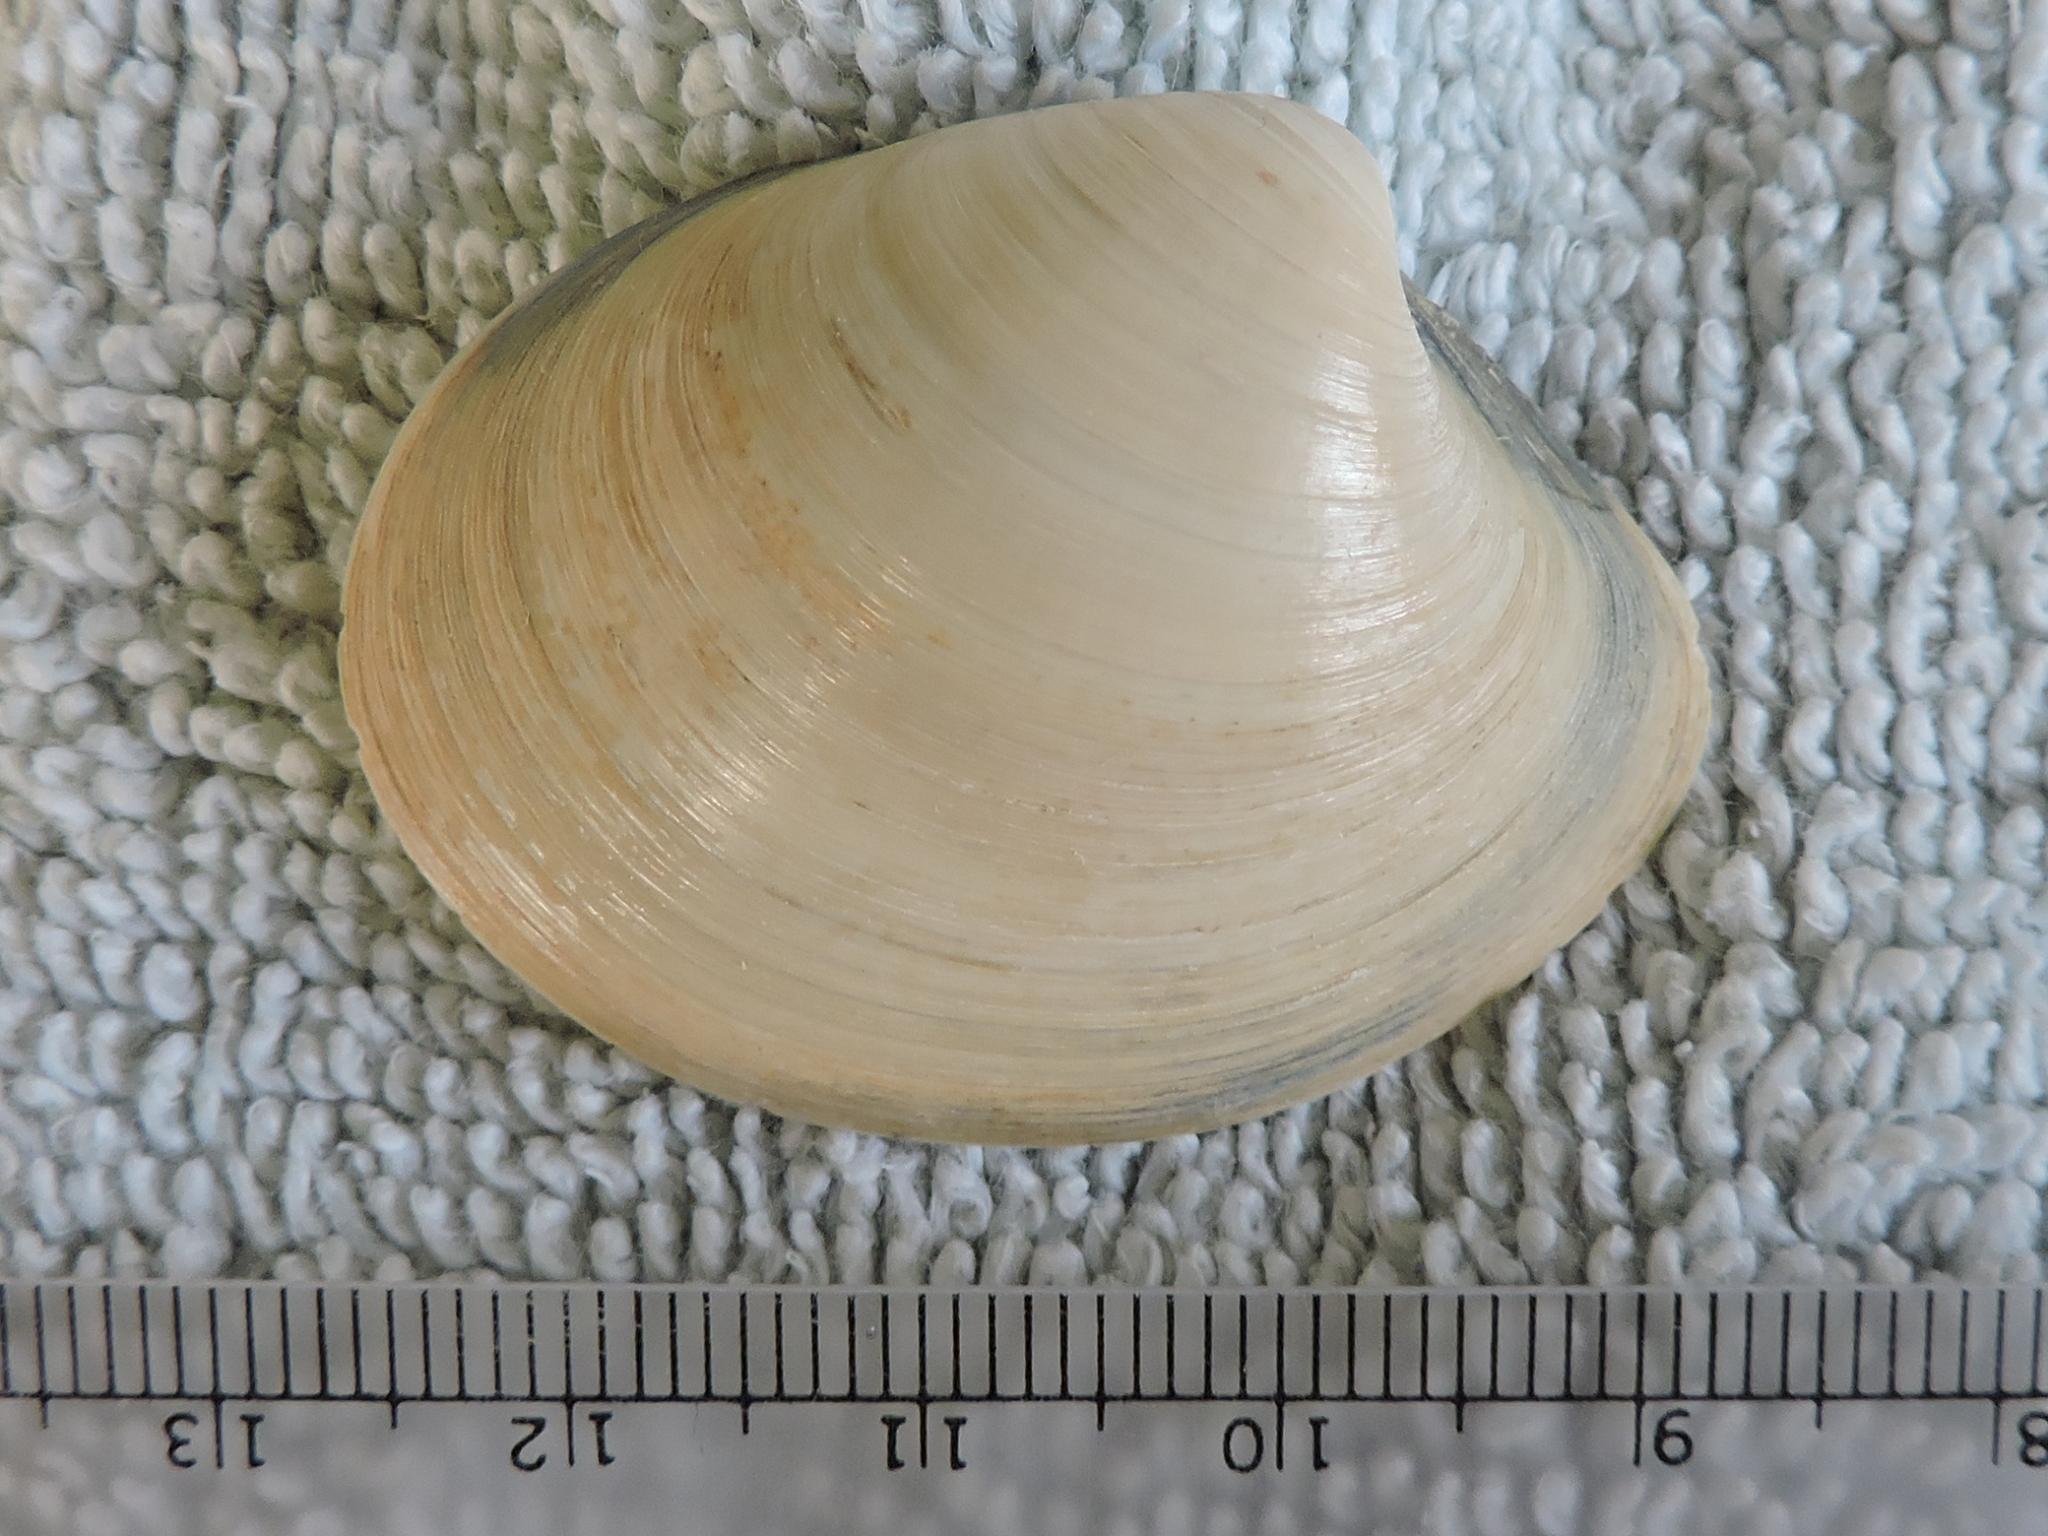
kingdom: Animalia
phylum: Mollusca
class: Bivalvia
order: Venerida
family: Veneridae
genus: Agriopoma
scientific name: Agriopoma texasianum
